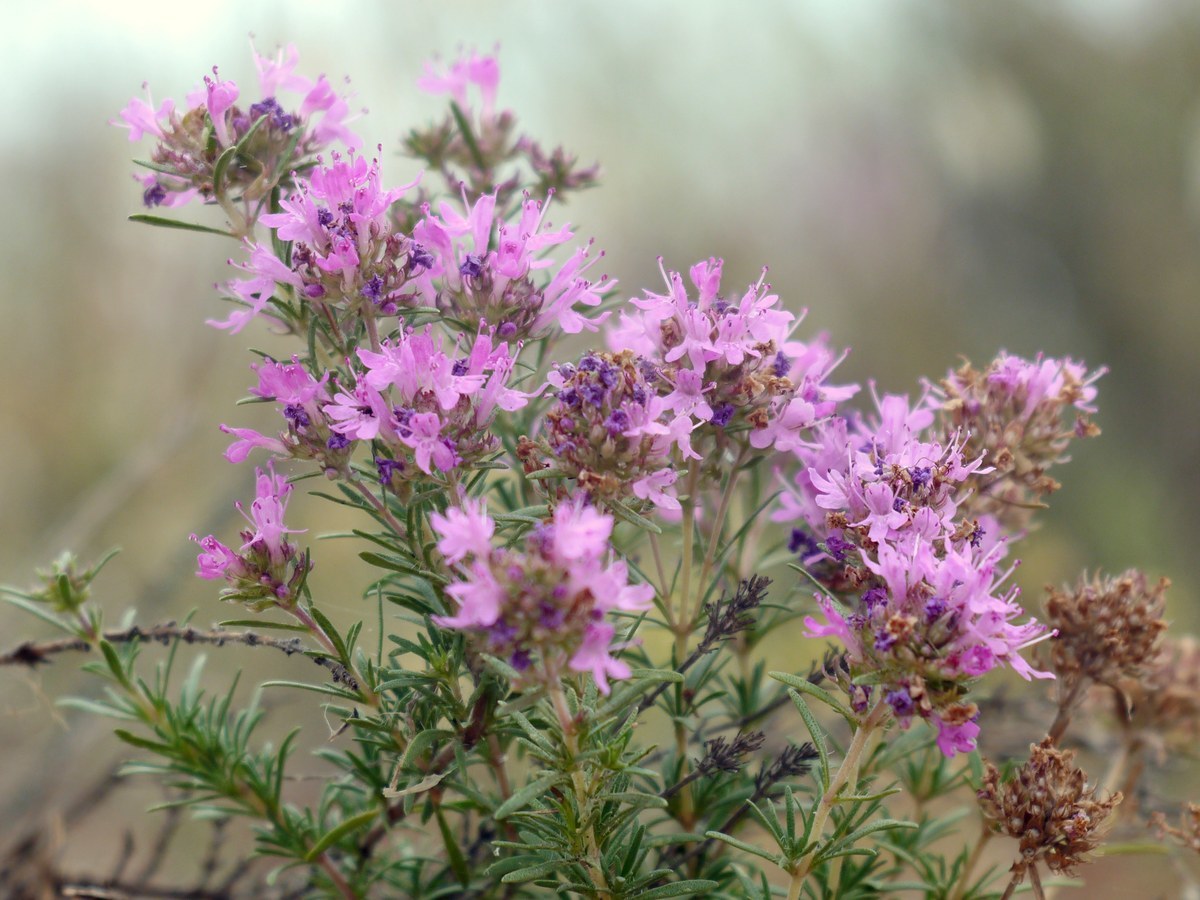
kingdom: Plantae
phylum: Tracheophyta
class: Magnoliopsida
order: Lamiales
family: Lamiaceae
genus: Thymus
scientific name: Thymus pallasianus
